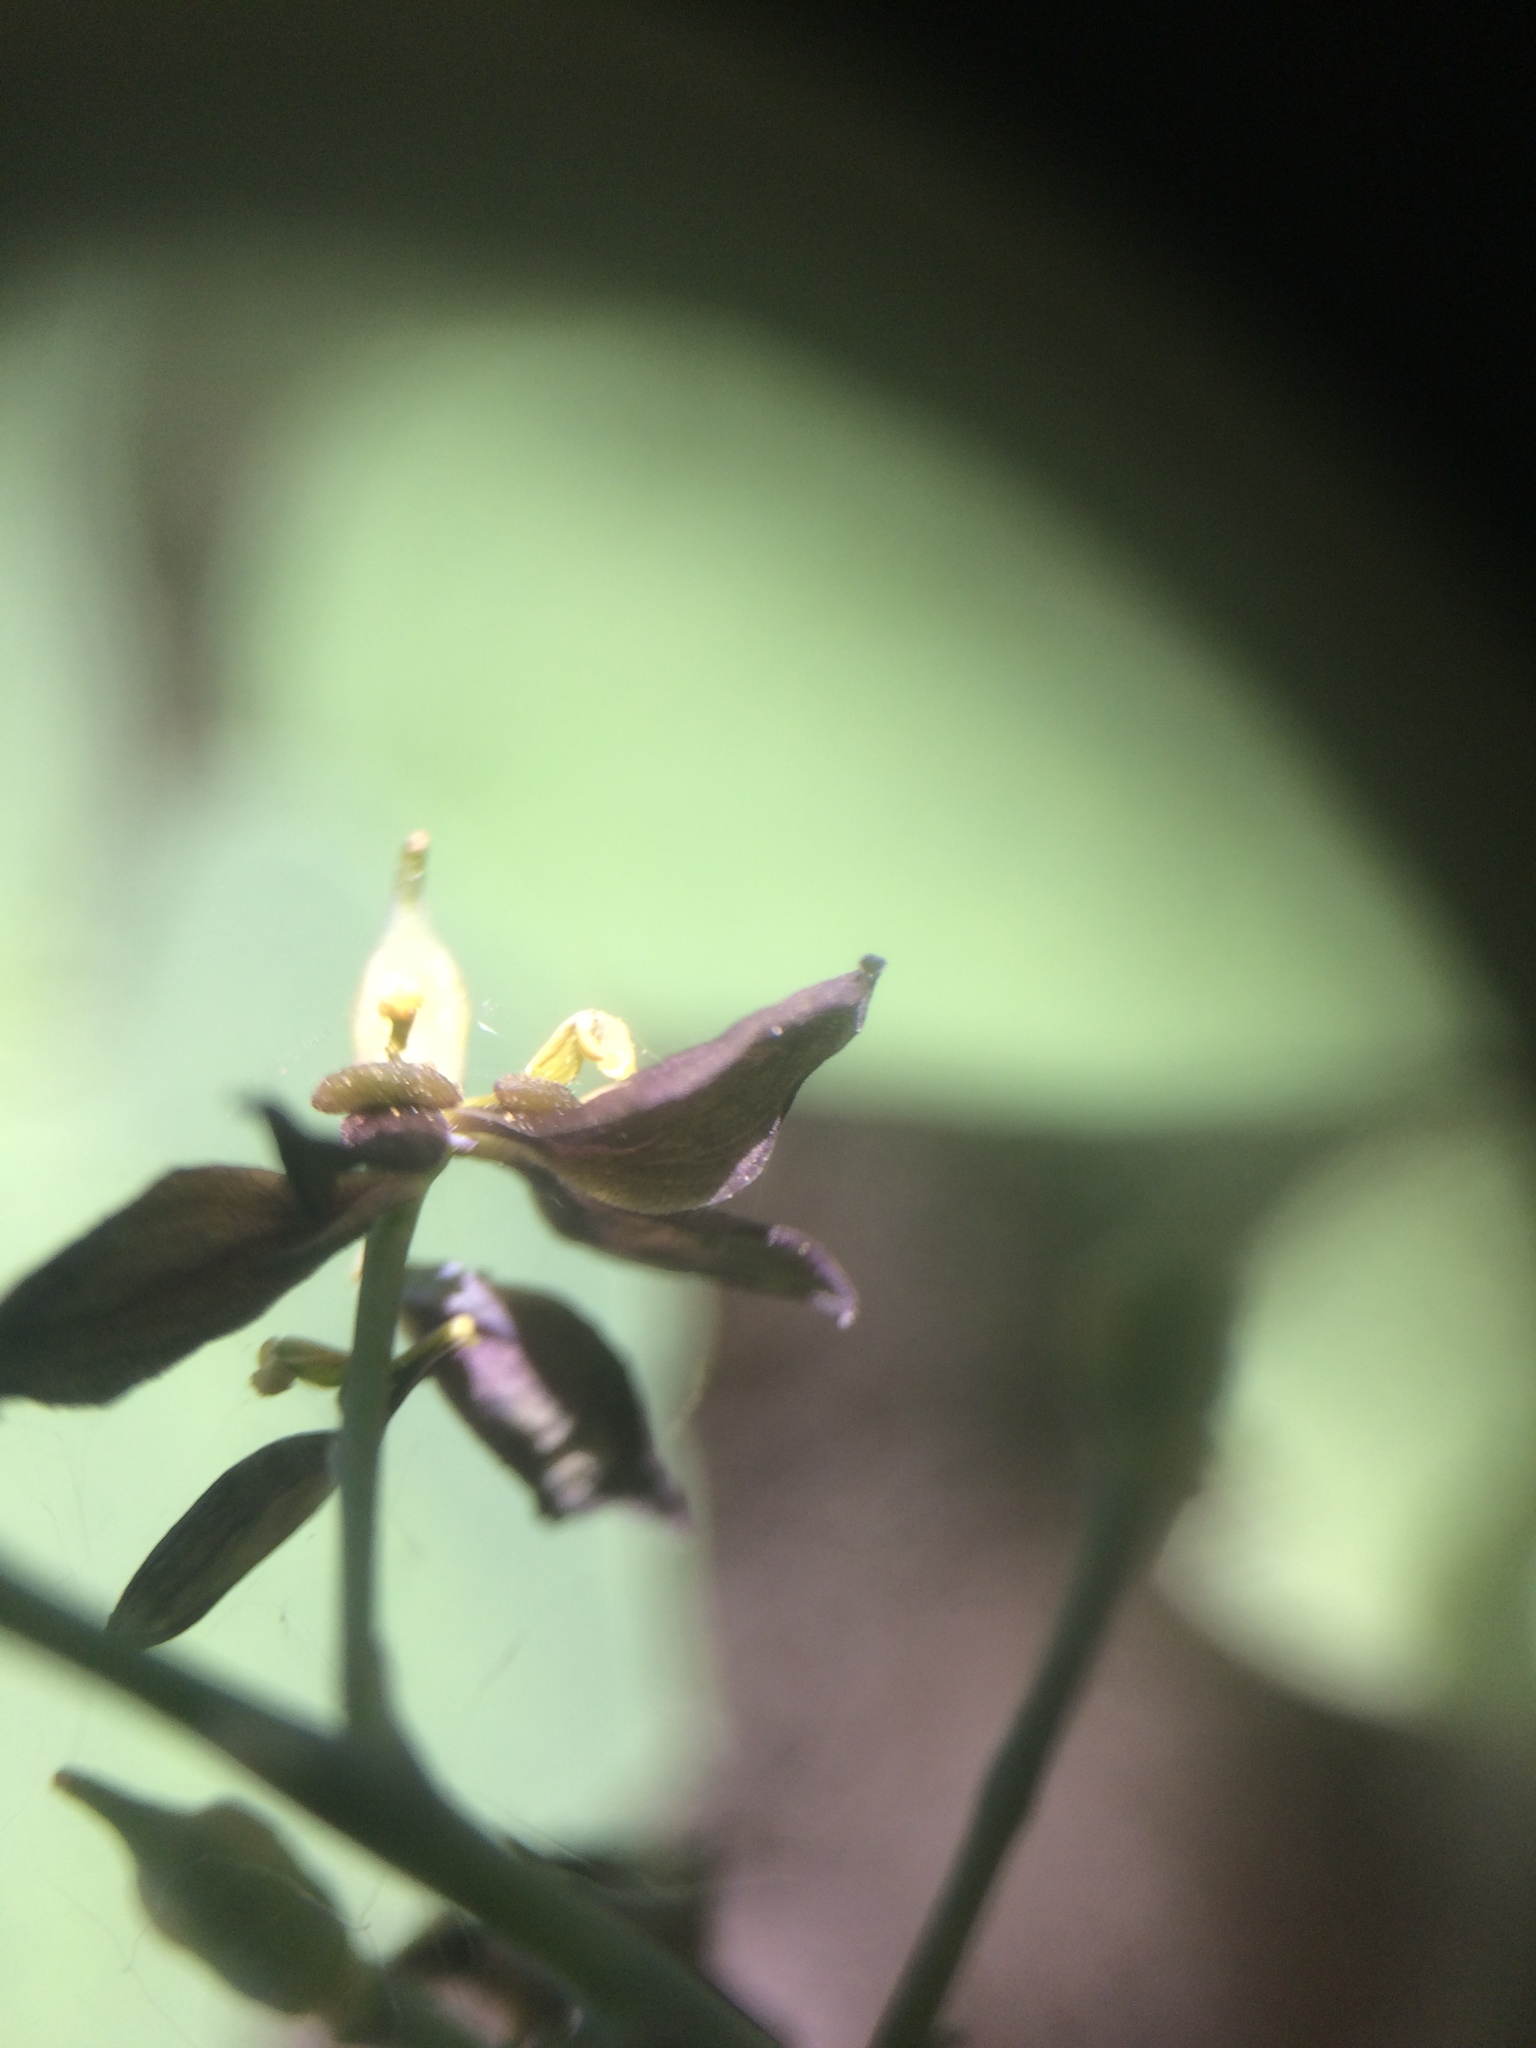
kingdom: Plantae
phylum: Tracheophyta
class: Magnoliopsida
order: Ranunculales
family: Berberidaceae
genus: Caulophyllum
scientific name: Caulophyllum giganteum
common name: Blue cohosh
